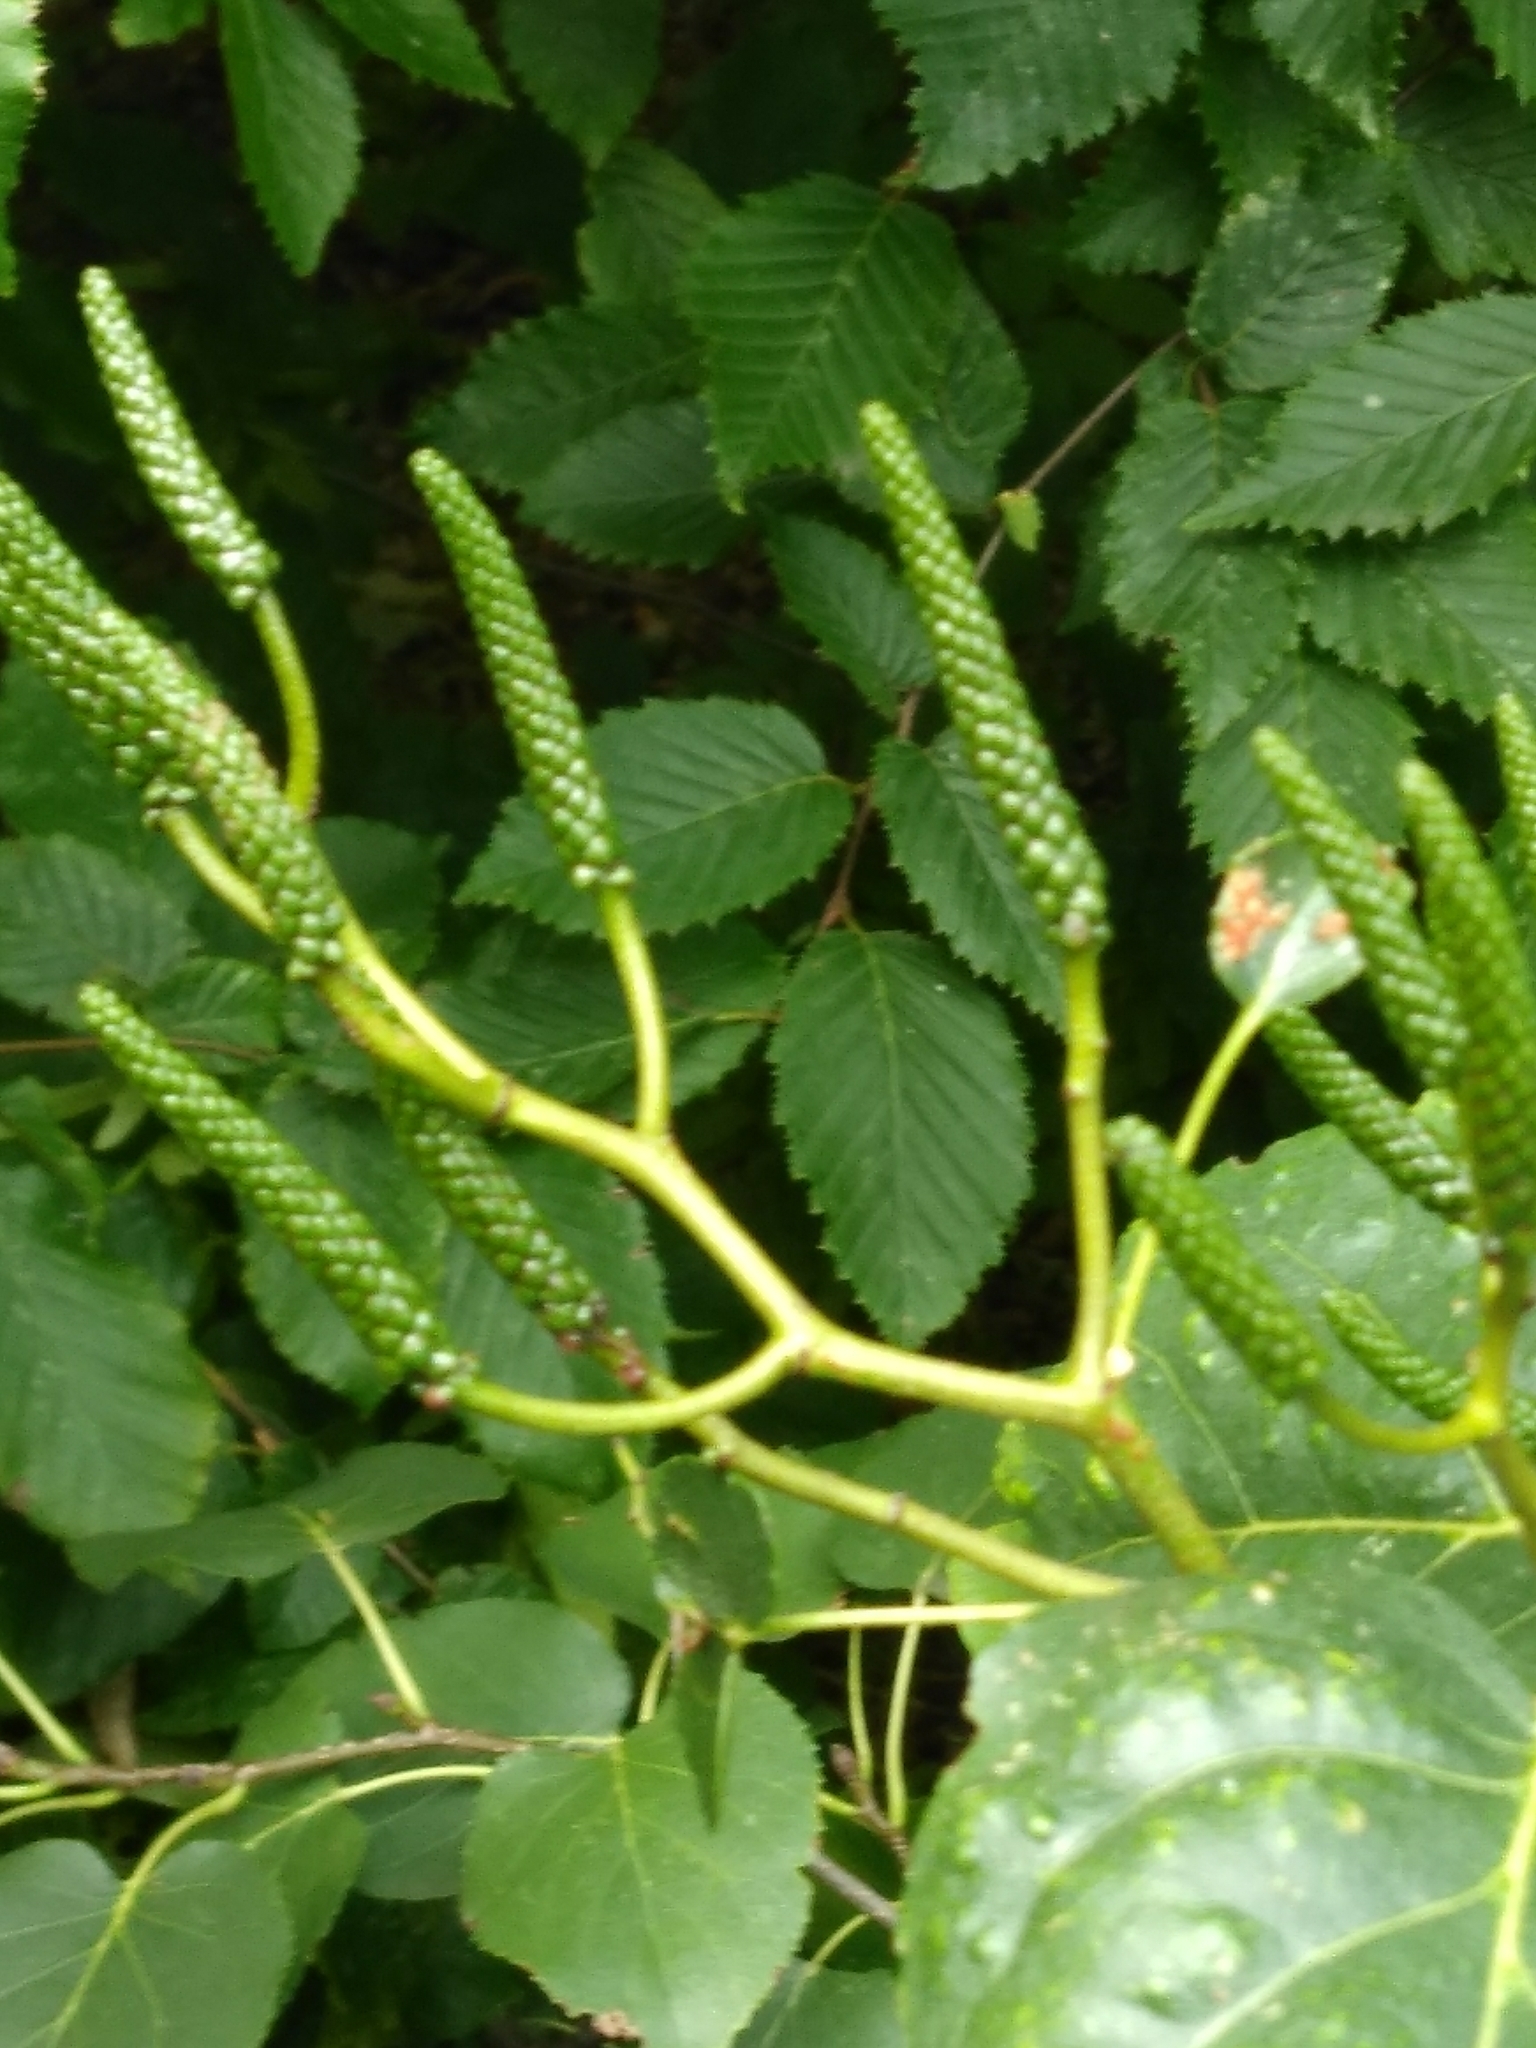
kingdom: Plantae
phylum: Tracheophyta
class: Magnoliopsida
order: Fagales
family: Betulaceae
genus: Alnus
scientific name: Alnus cordata
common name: Italian alder
